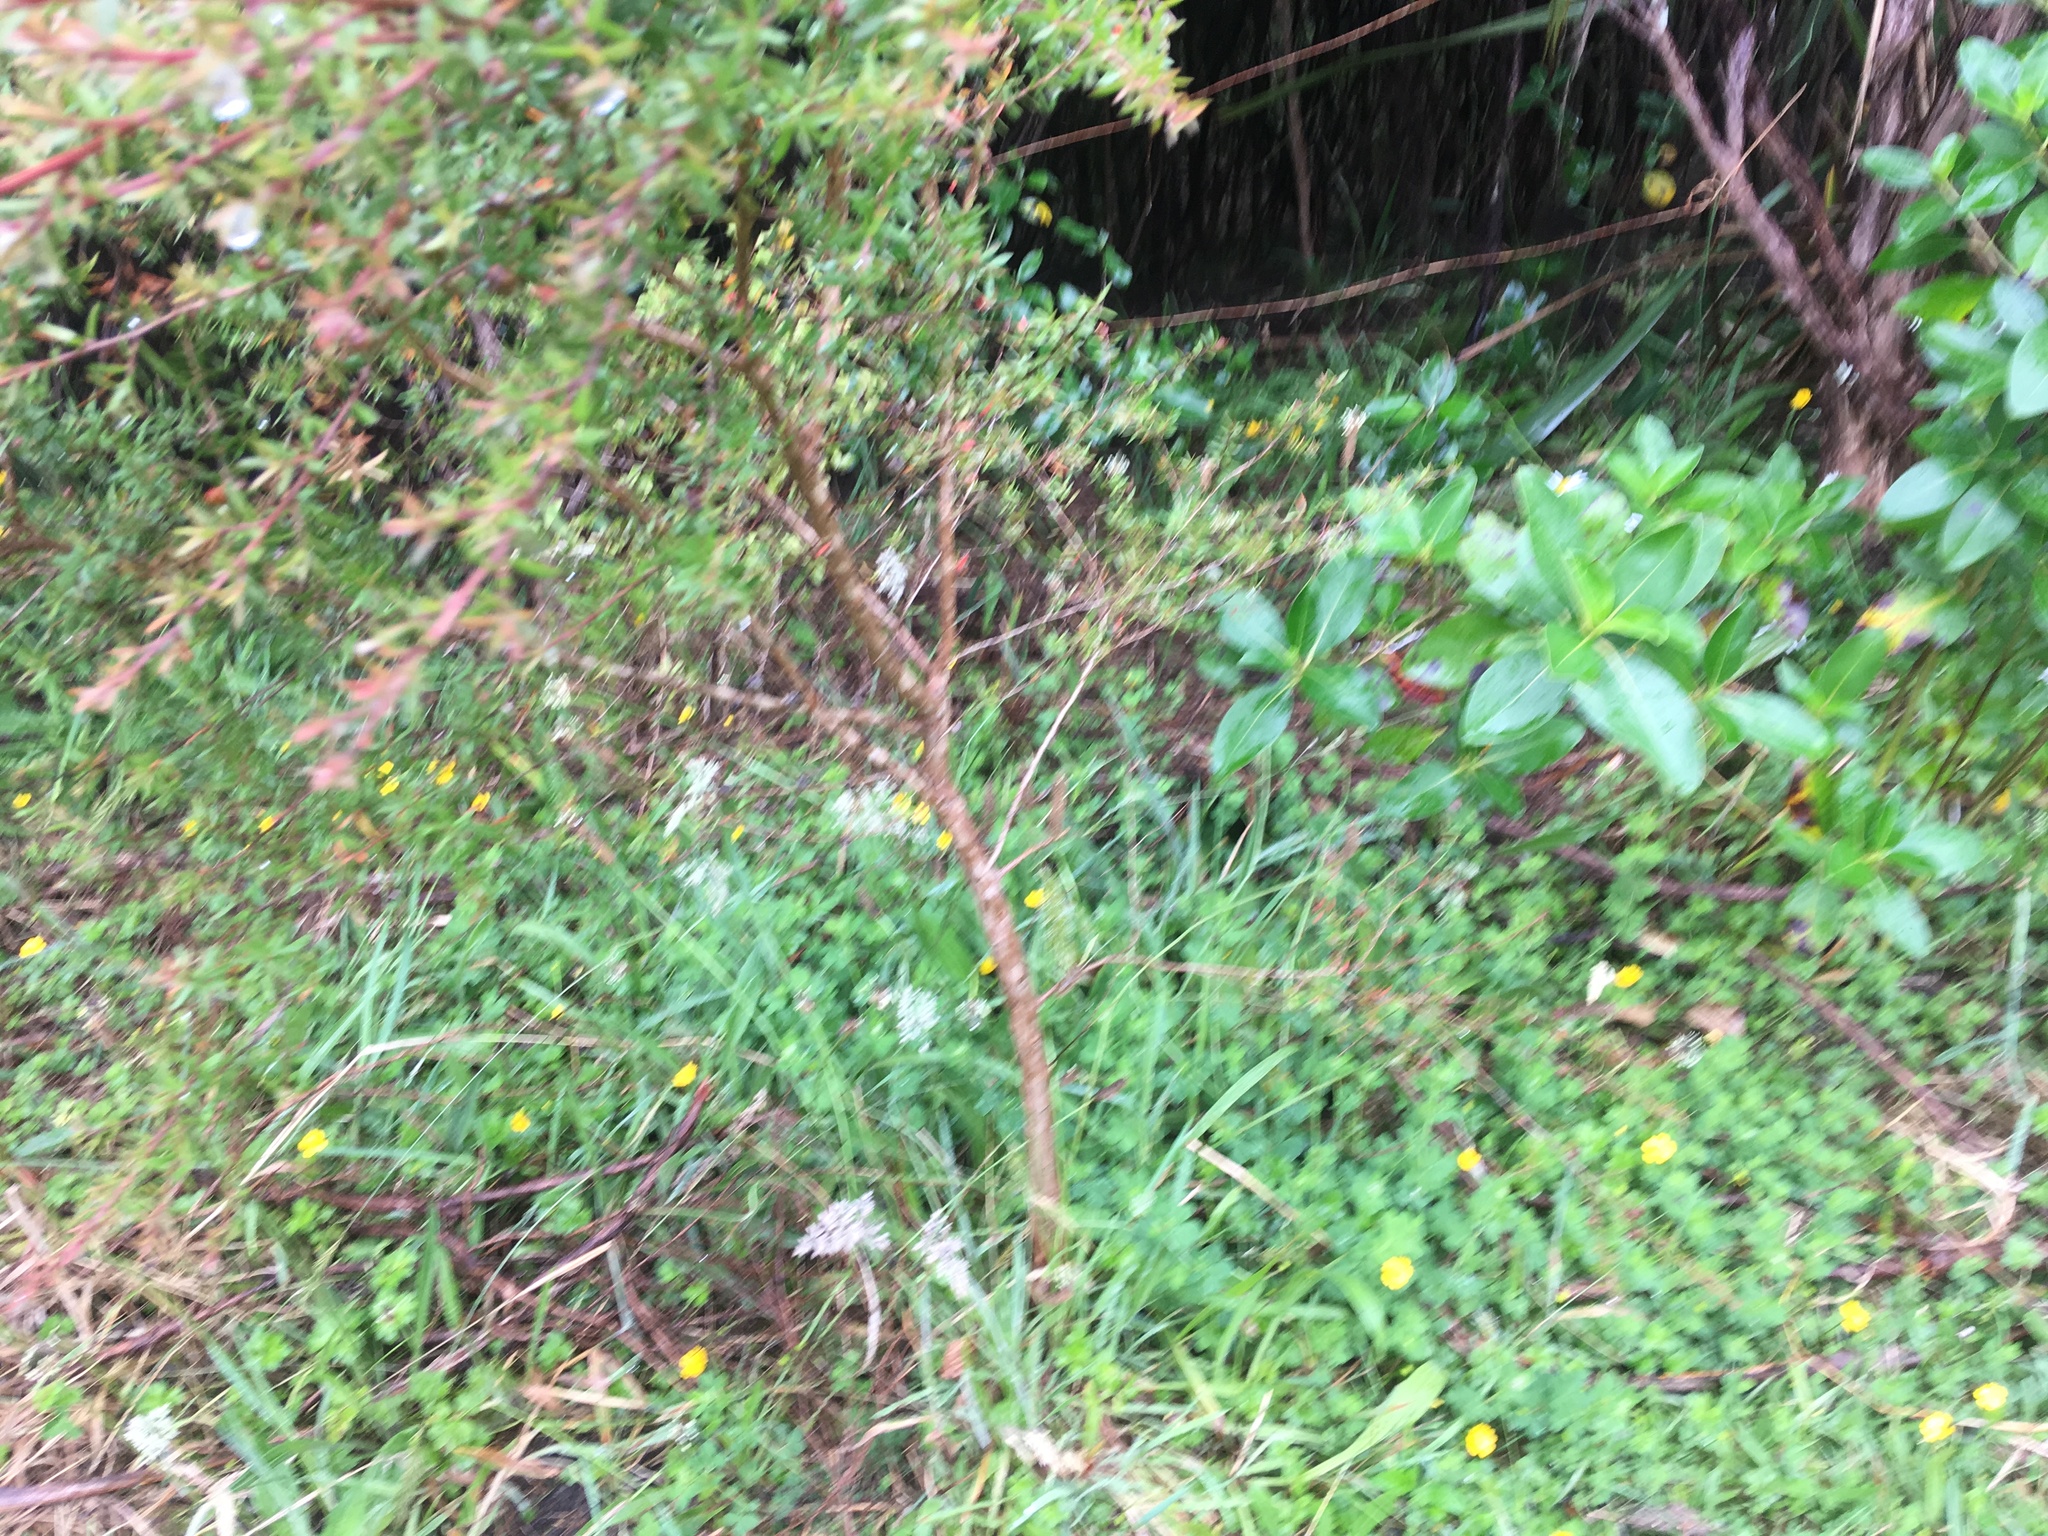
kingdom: Plantae
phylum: Tracheophyta
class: Magnoliopsida
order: Myrtales
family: Myrtaceae
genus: Leptospermum
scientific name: Leptospermum scoparium
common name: Broom tea-tree
